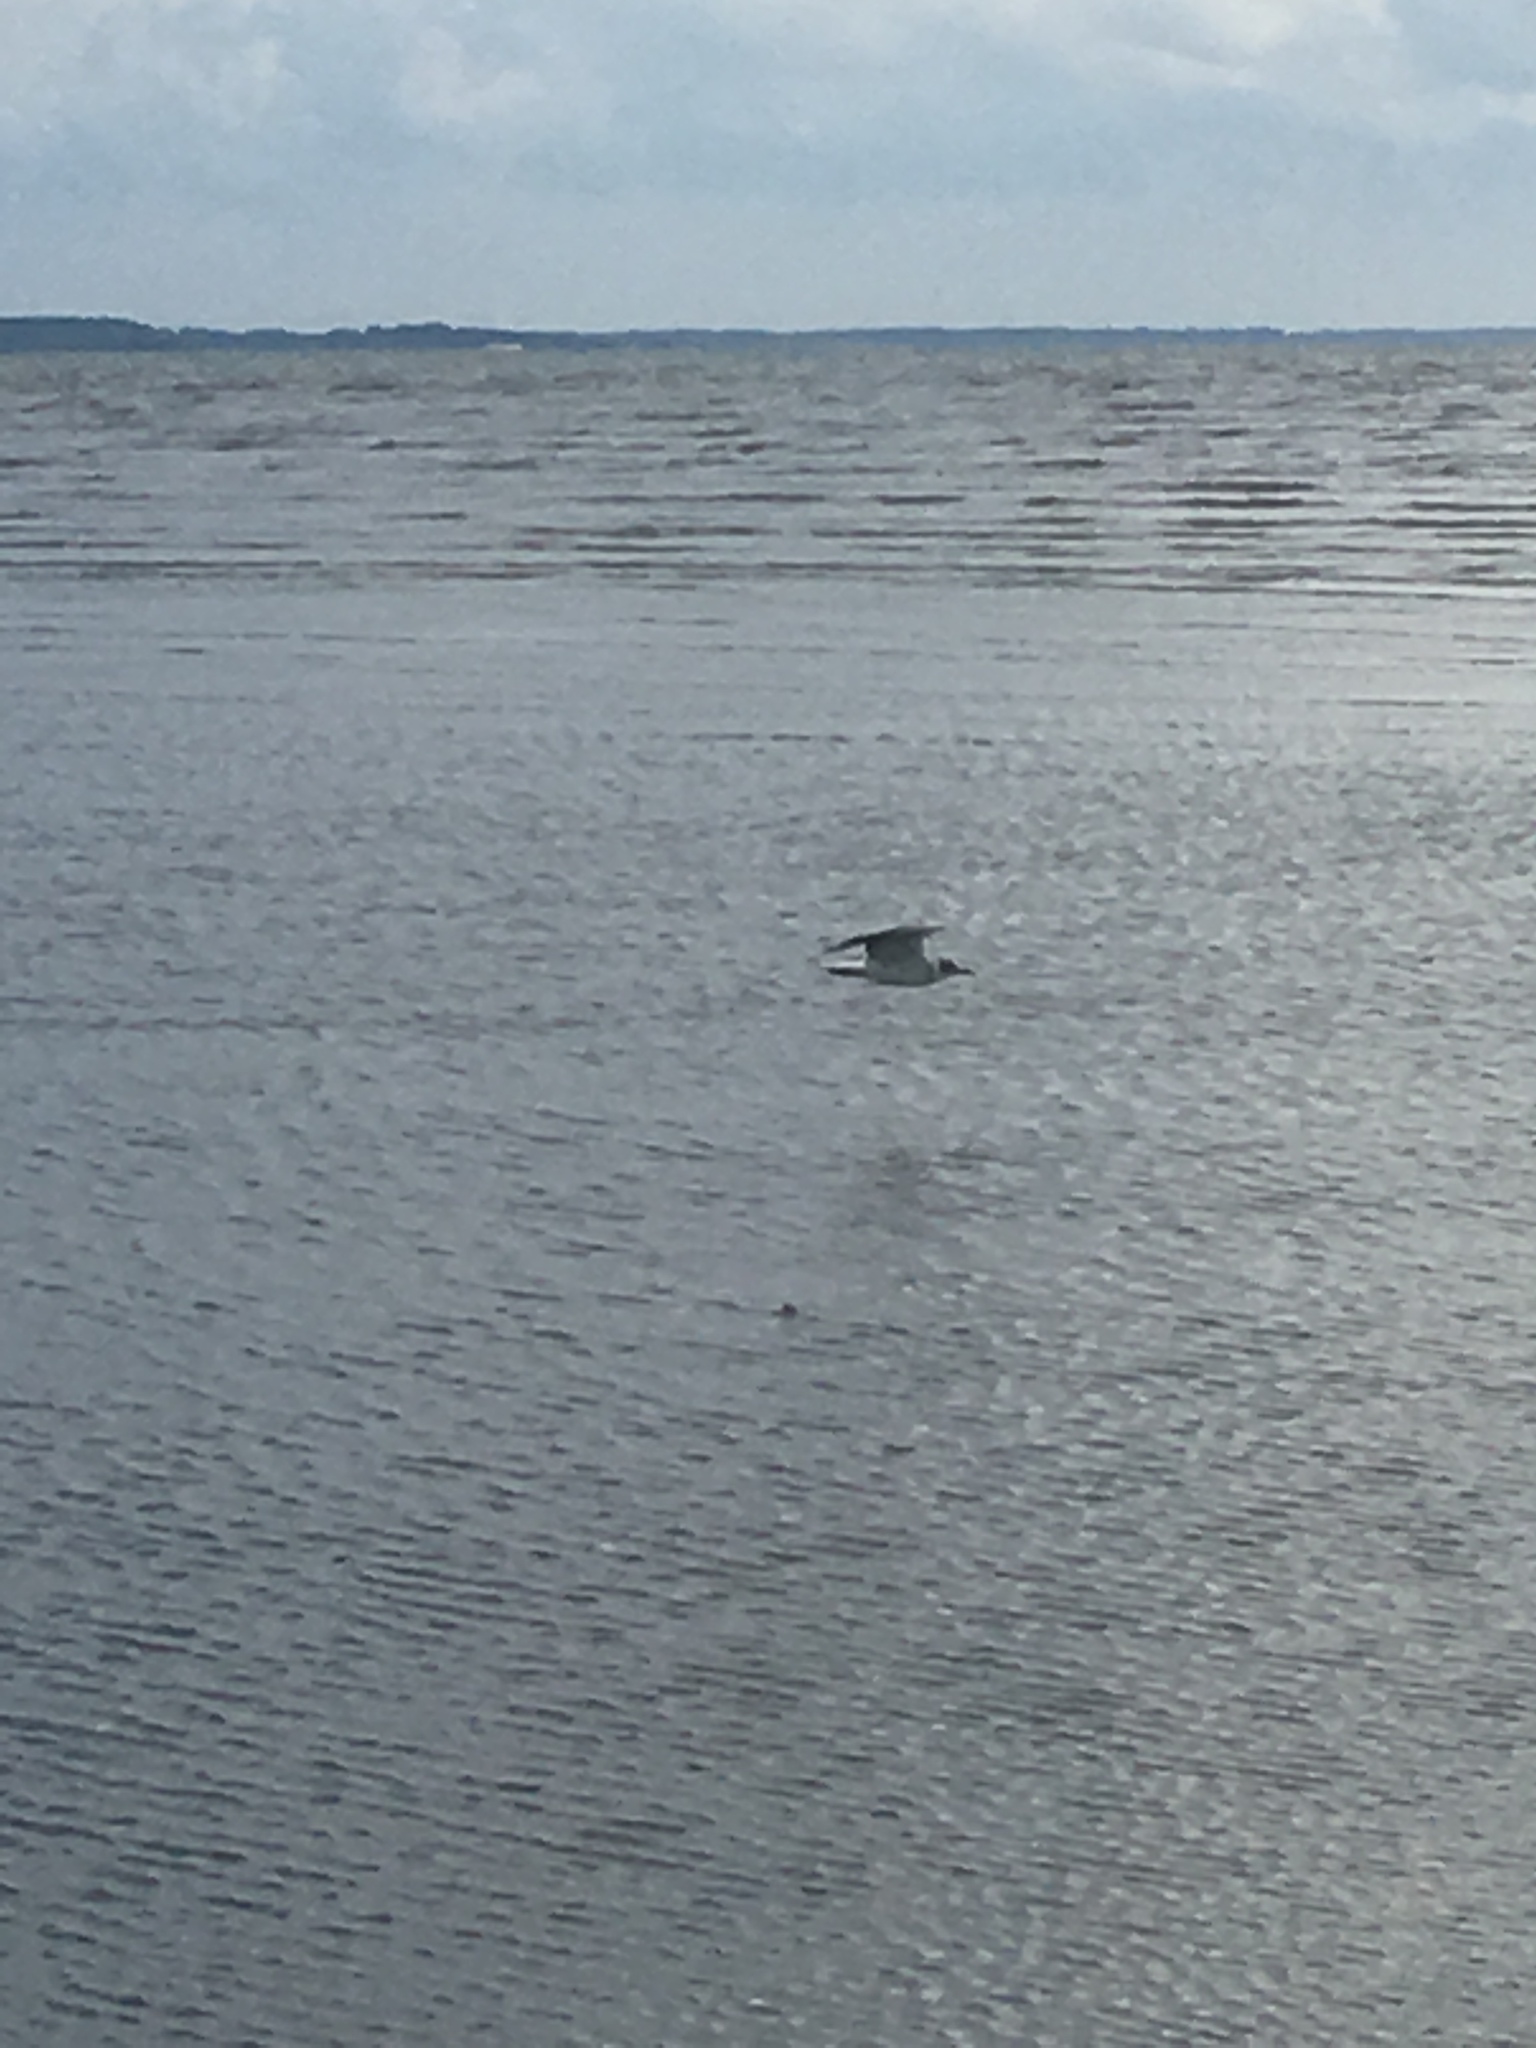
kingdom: Animalia
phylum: Chordata
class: Aves
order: Charadriiformes
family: Laridae
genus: Leucophaeus
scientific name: Leucophaeus atricilla
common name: Laughing gull
